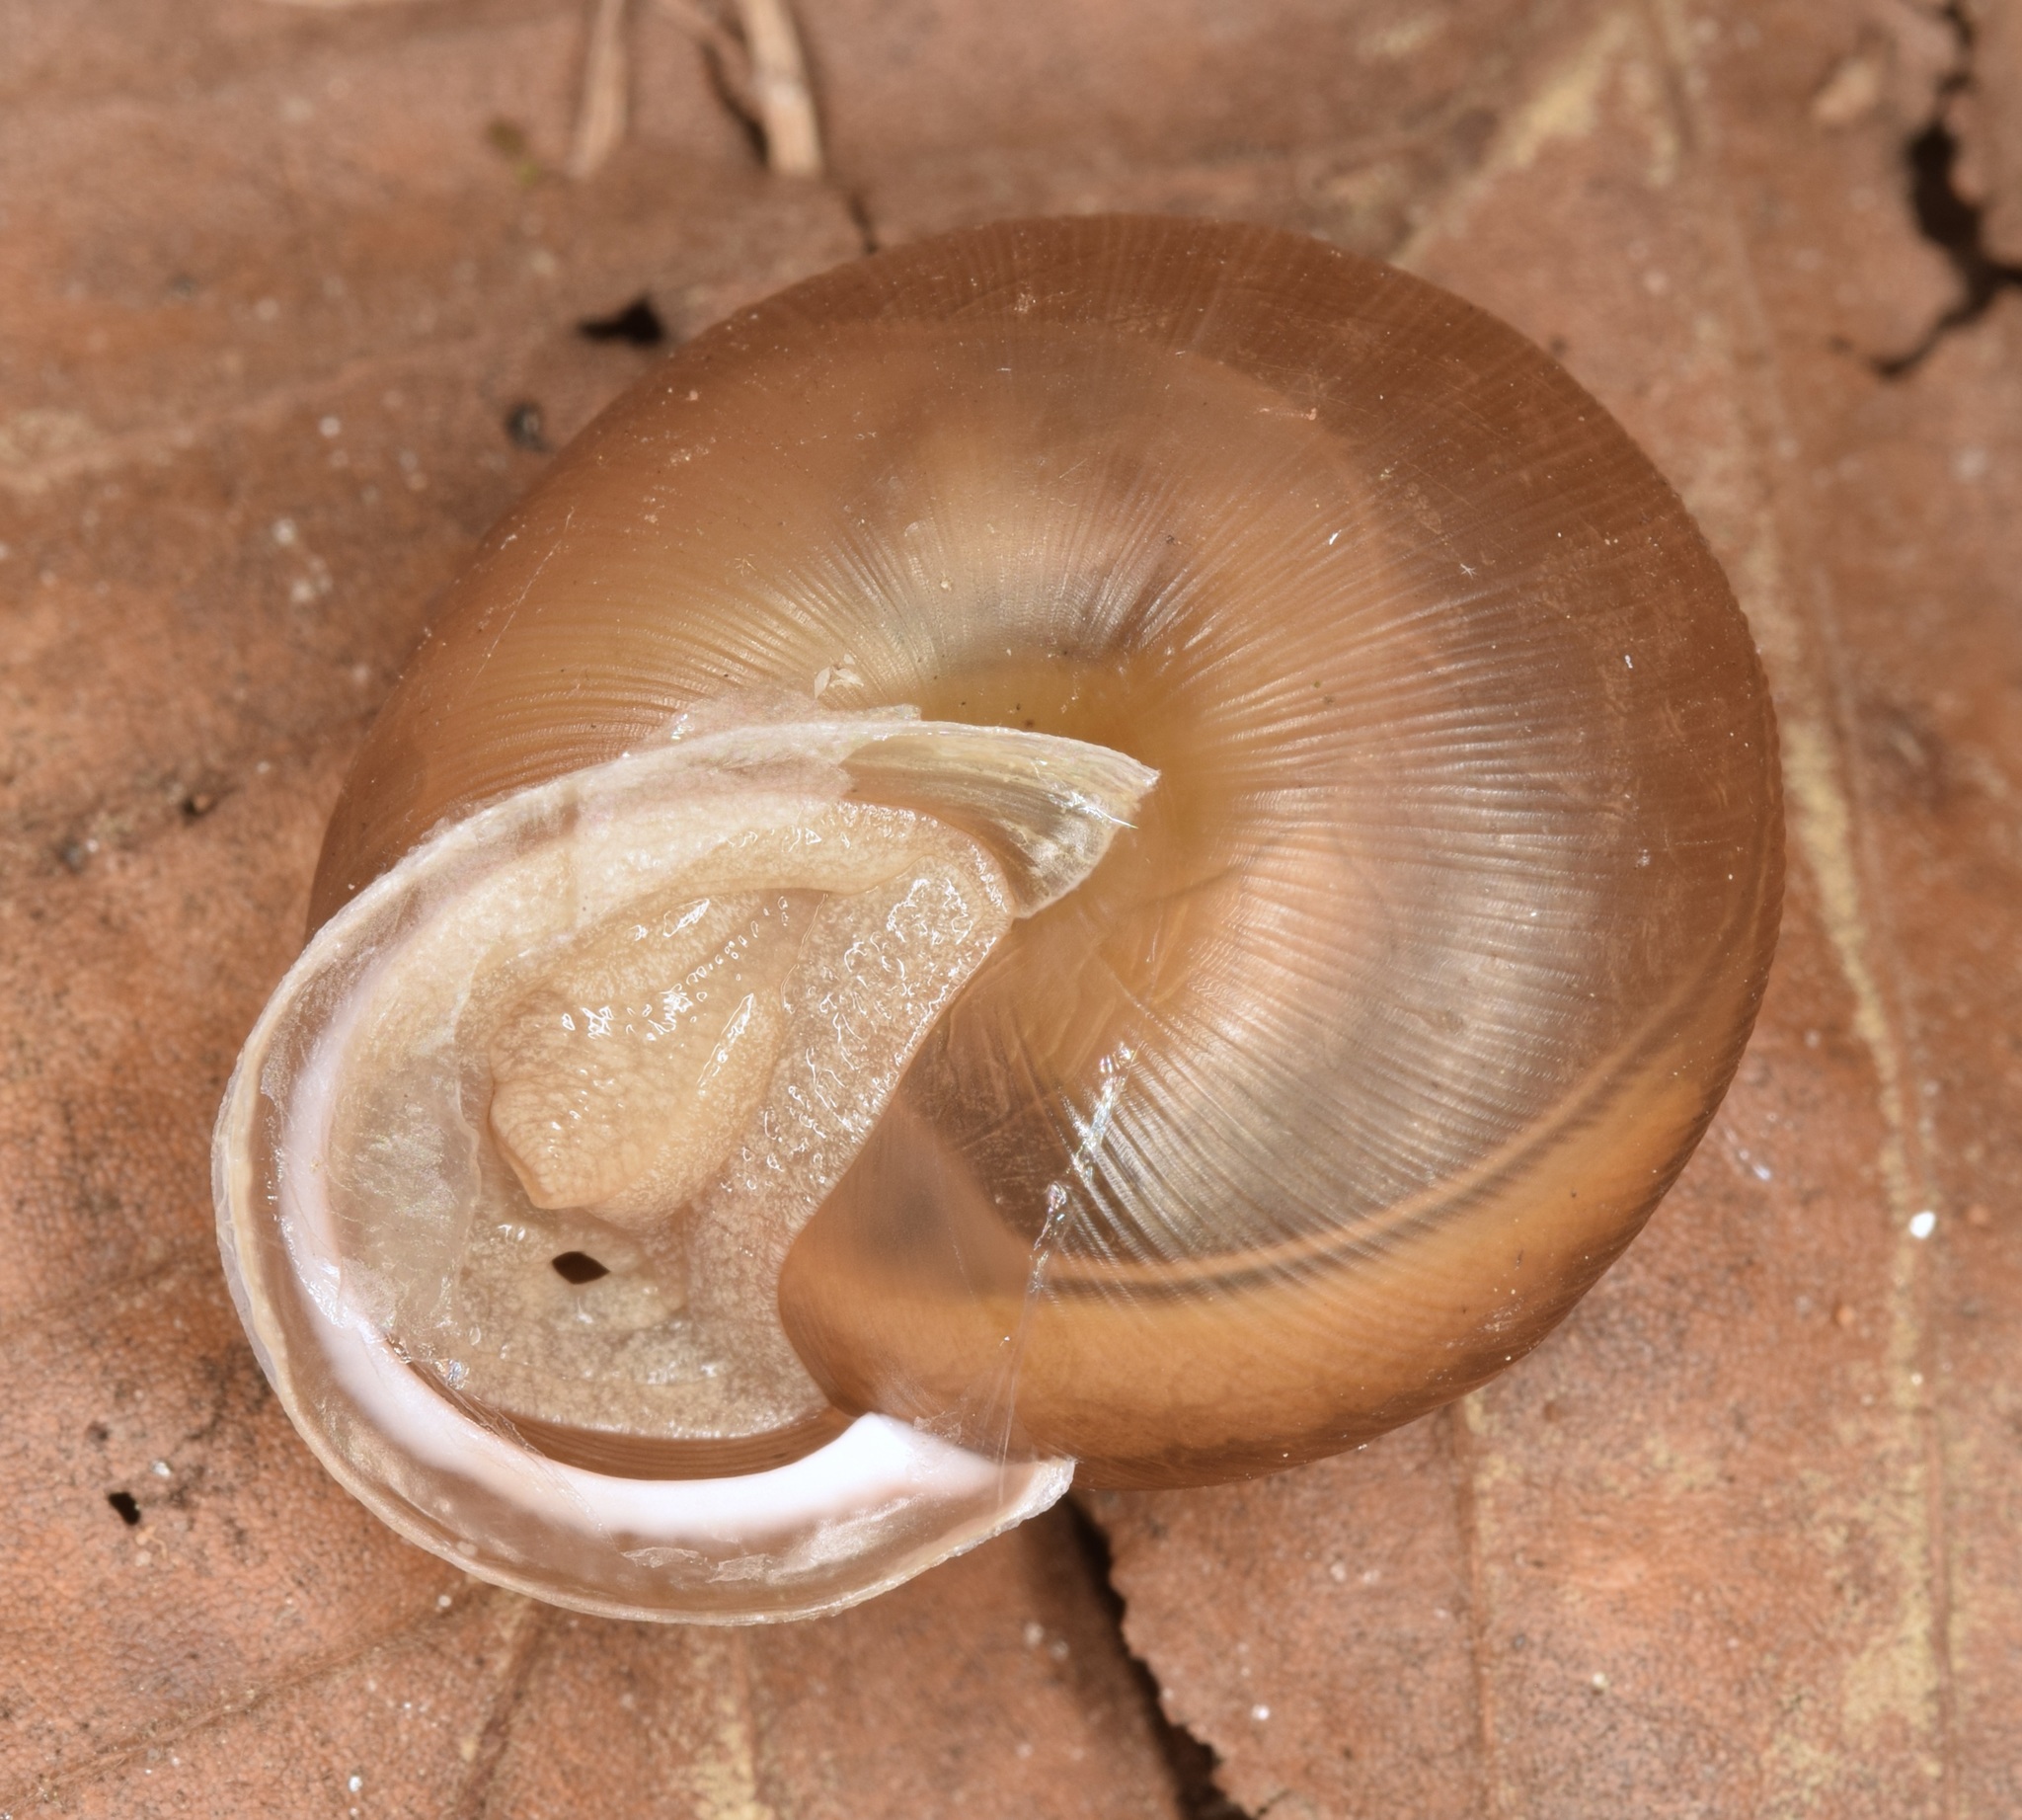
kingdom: Animalia
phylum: Mollusca
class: Gastropoda
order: Stylommatophora
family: Polygyridae
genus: Mesodon
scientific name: Mesodon thyroidus
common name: White-lip globe
